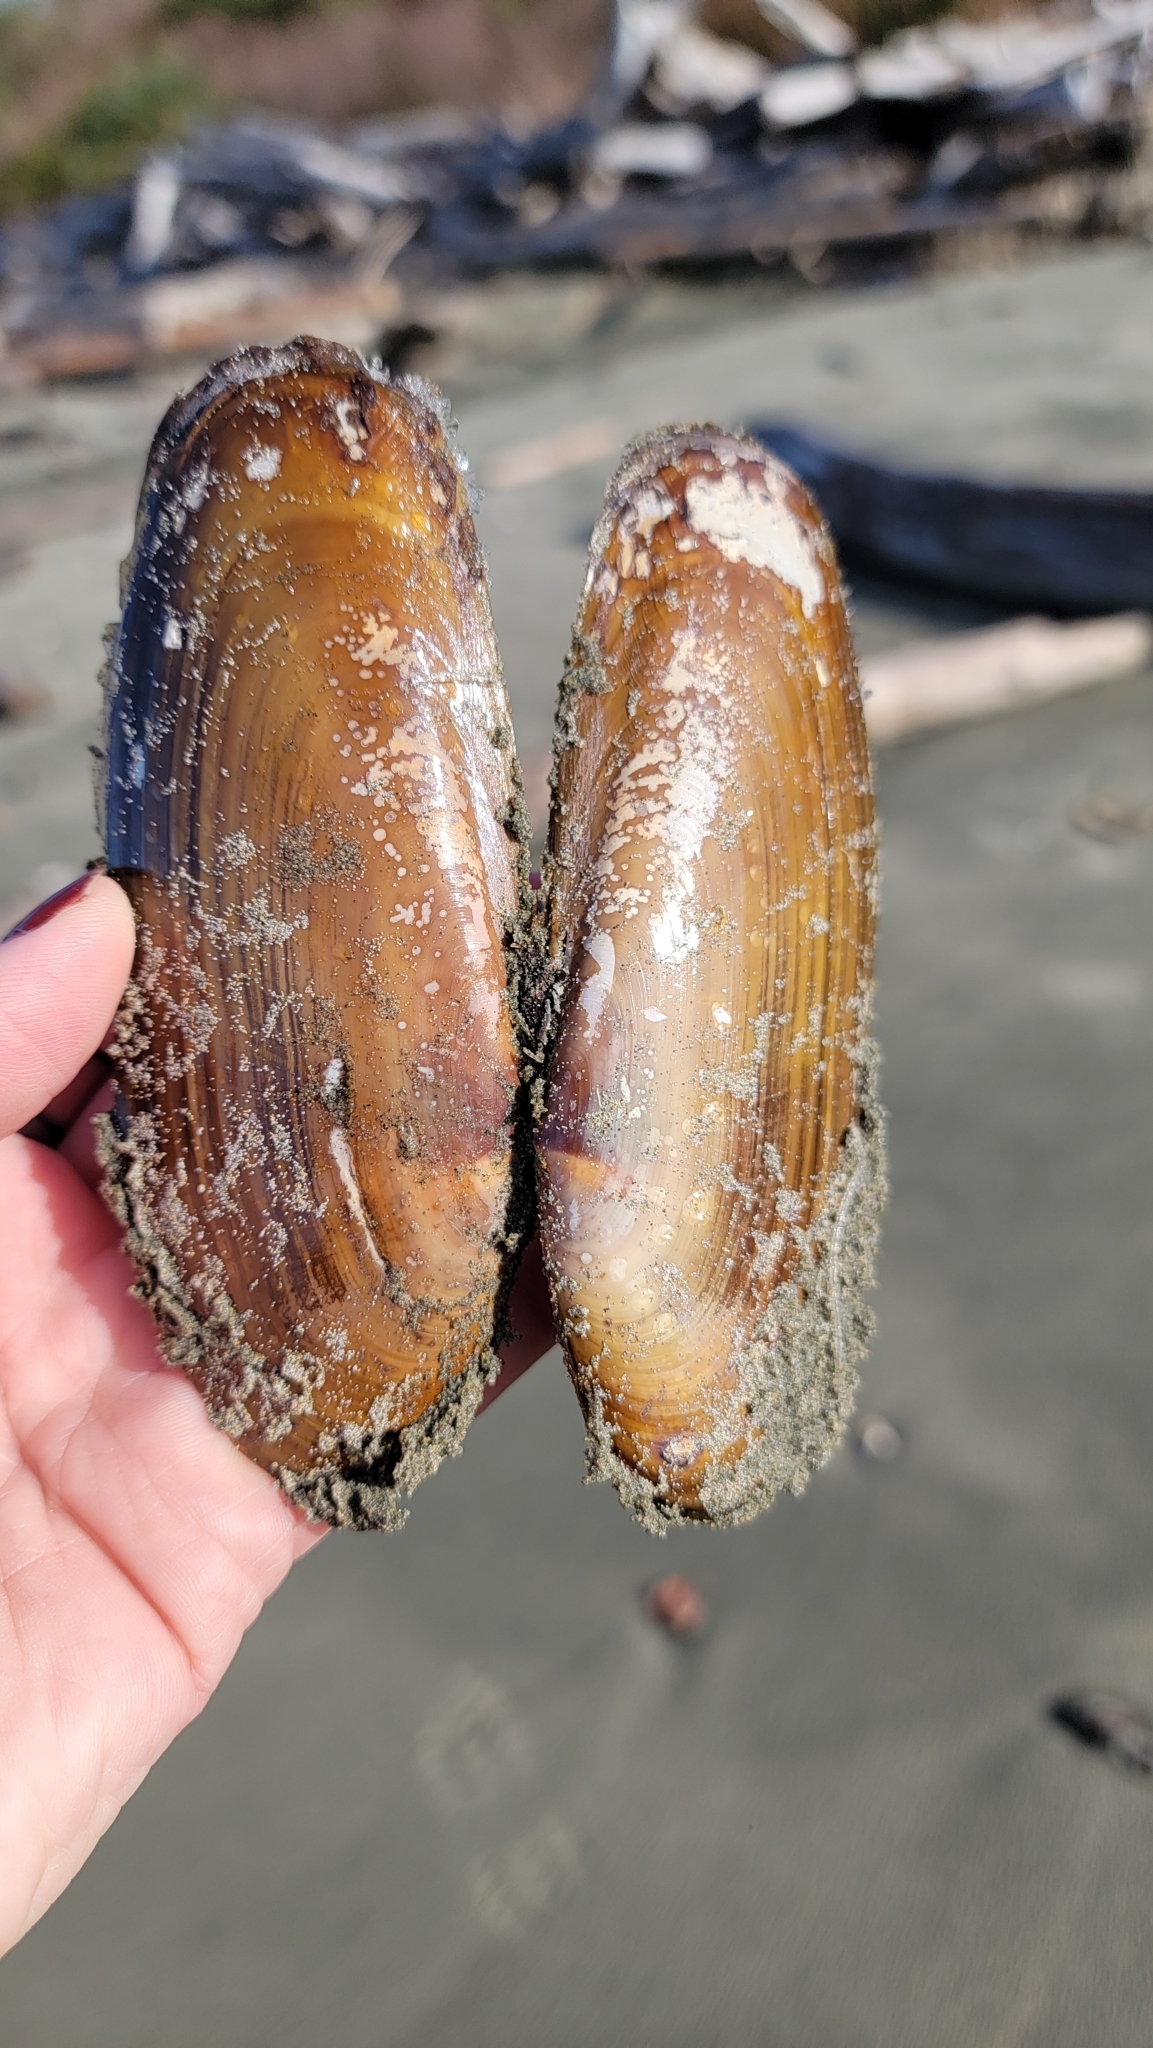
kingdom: Animalia
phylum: Mollusca
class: Bivalvia
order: Adapedonta
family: Pharidae
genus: Siliqua
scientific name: Siliqua patula
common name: Pacific razor clam
